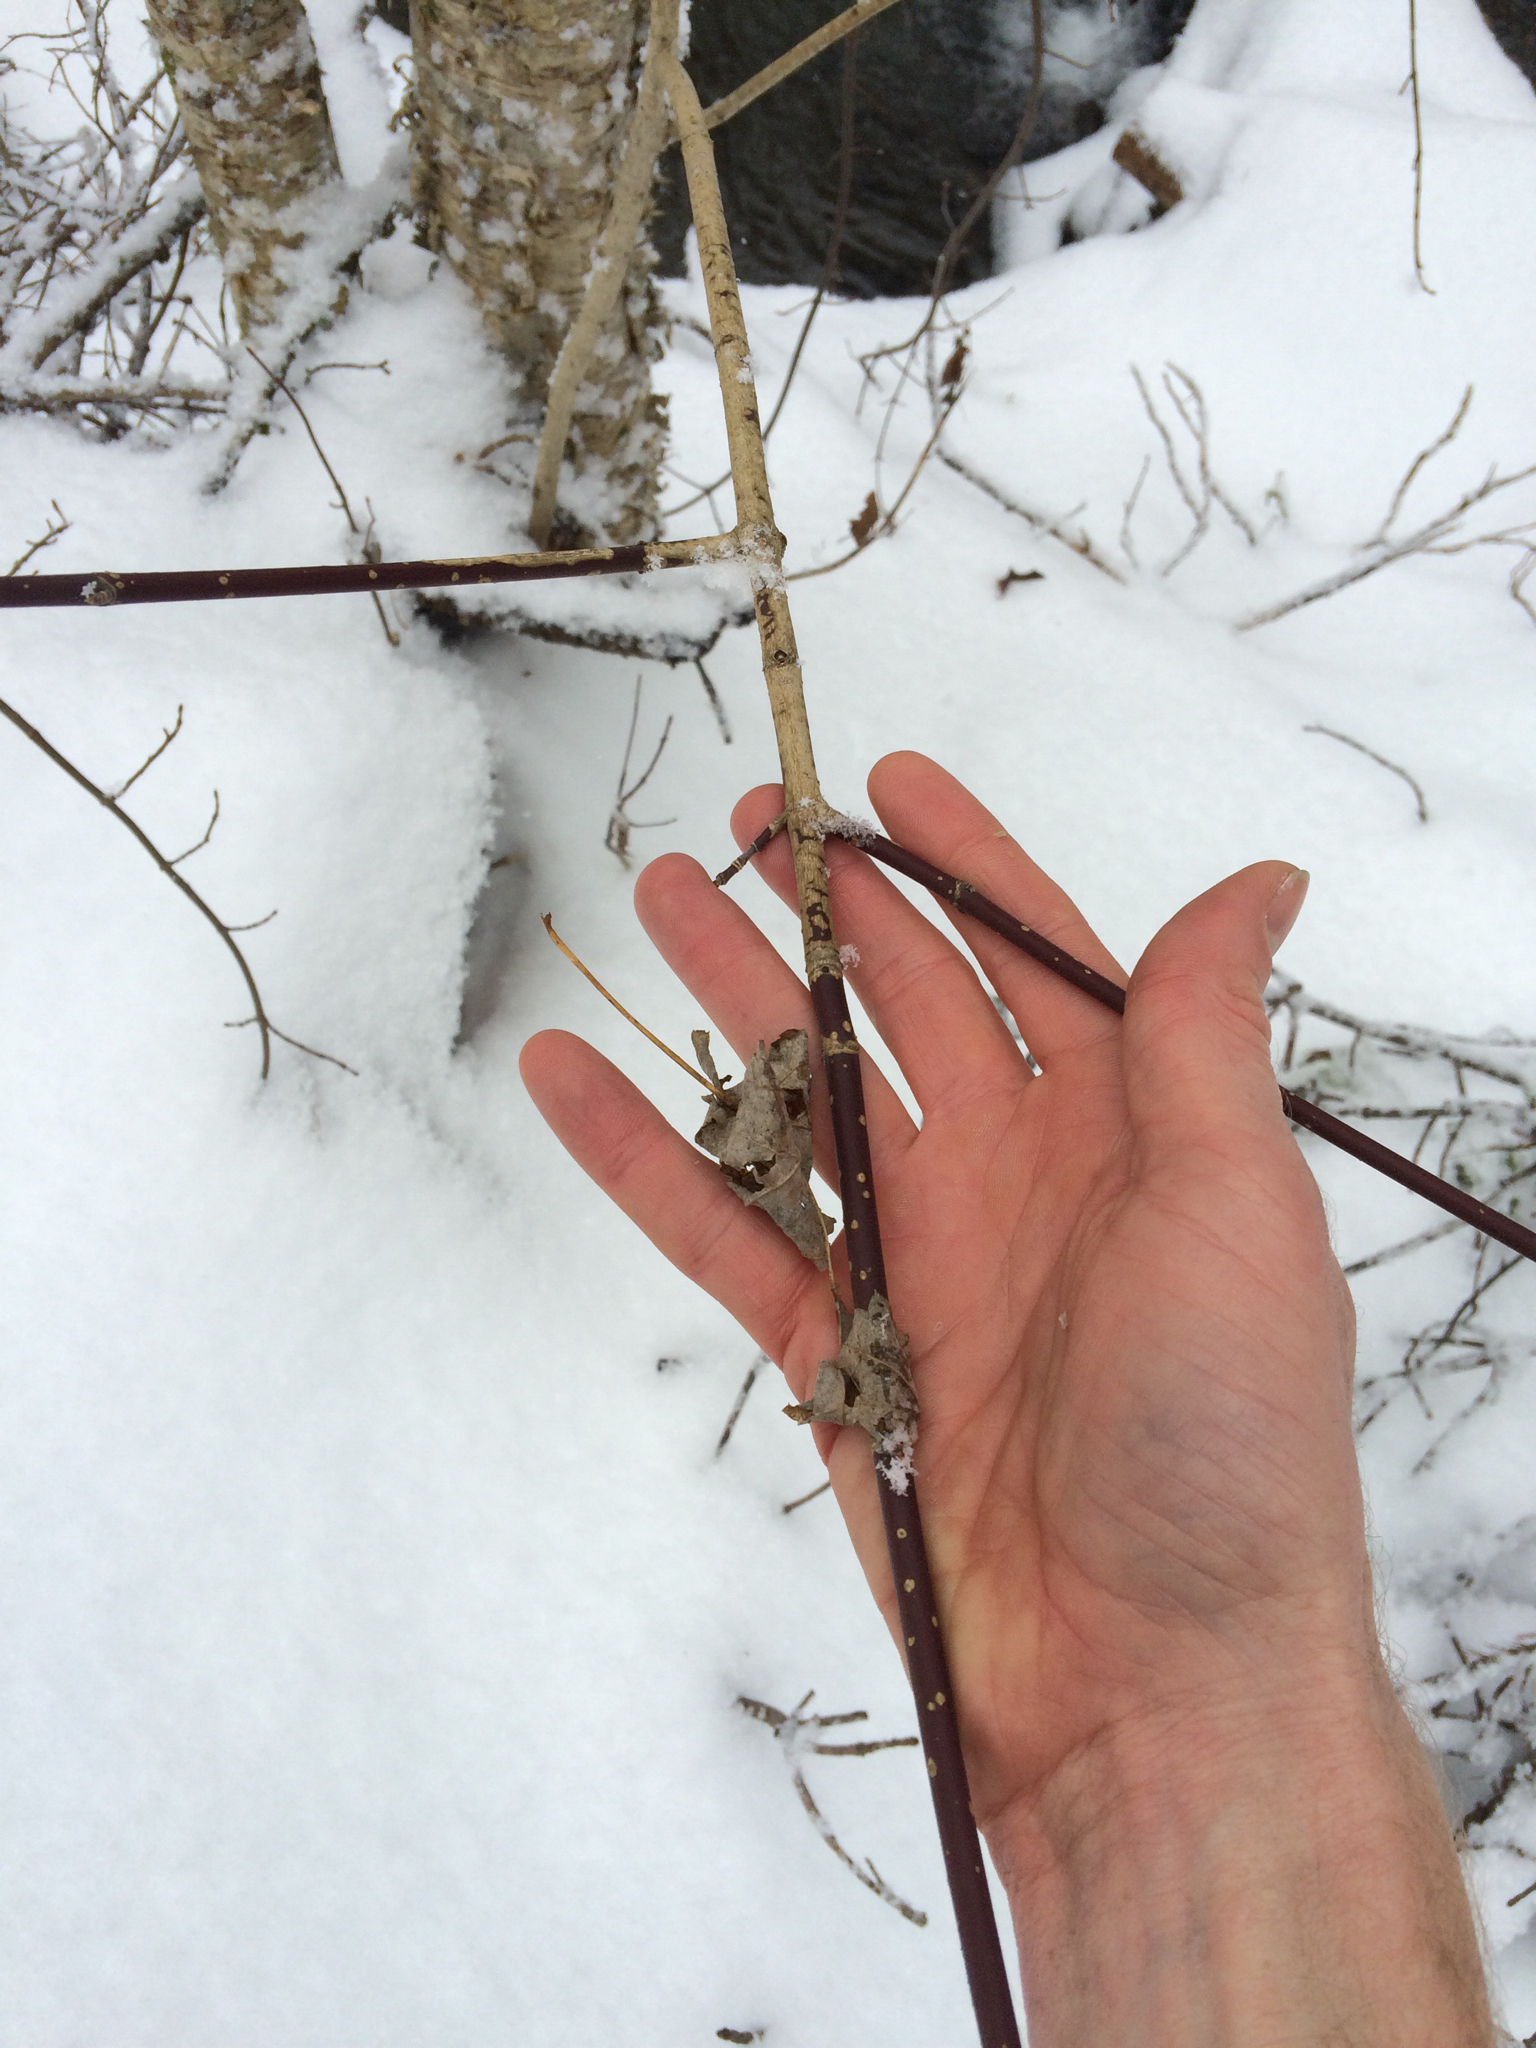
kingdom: Plantae
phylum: Tracheophyta
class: Magnoliopsida
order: Sapindales
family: Sapindaceae
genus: Acer
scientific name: Acer spicatum
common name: Mountain maple
